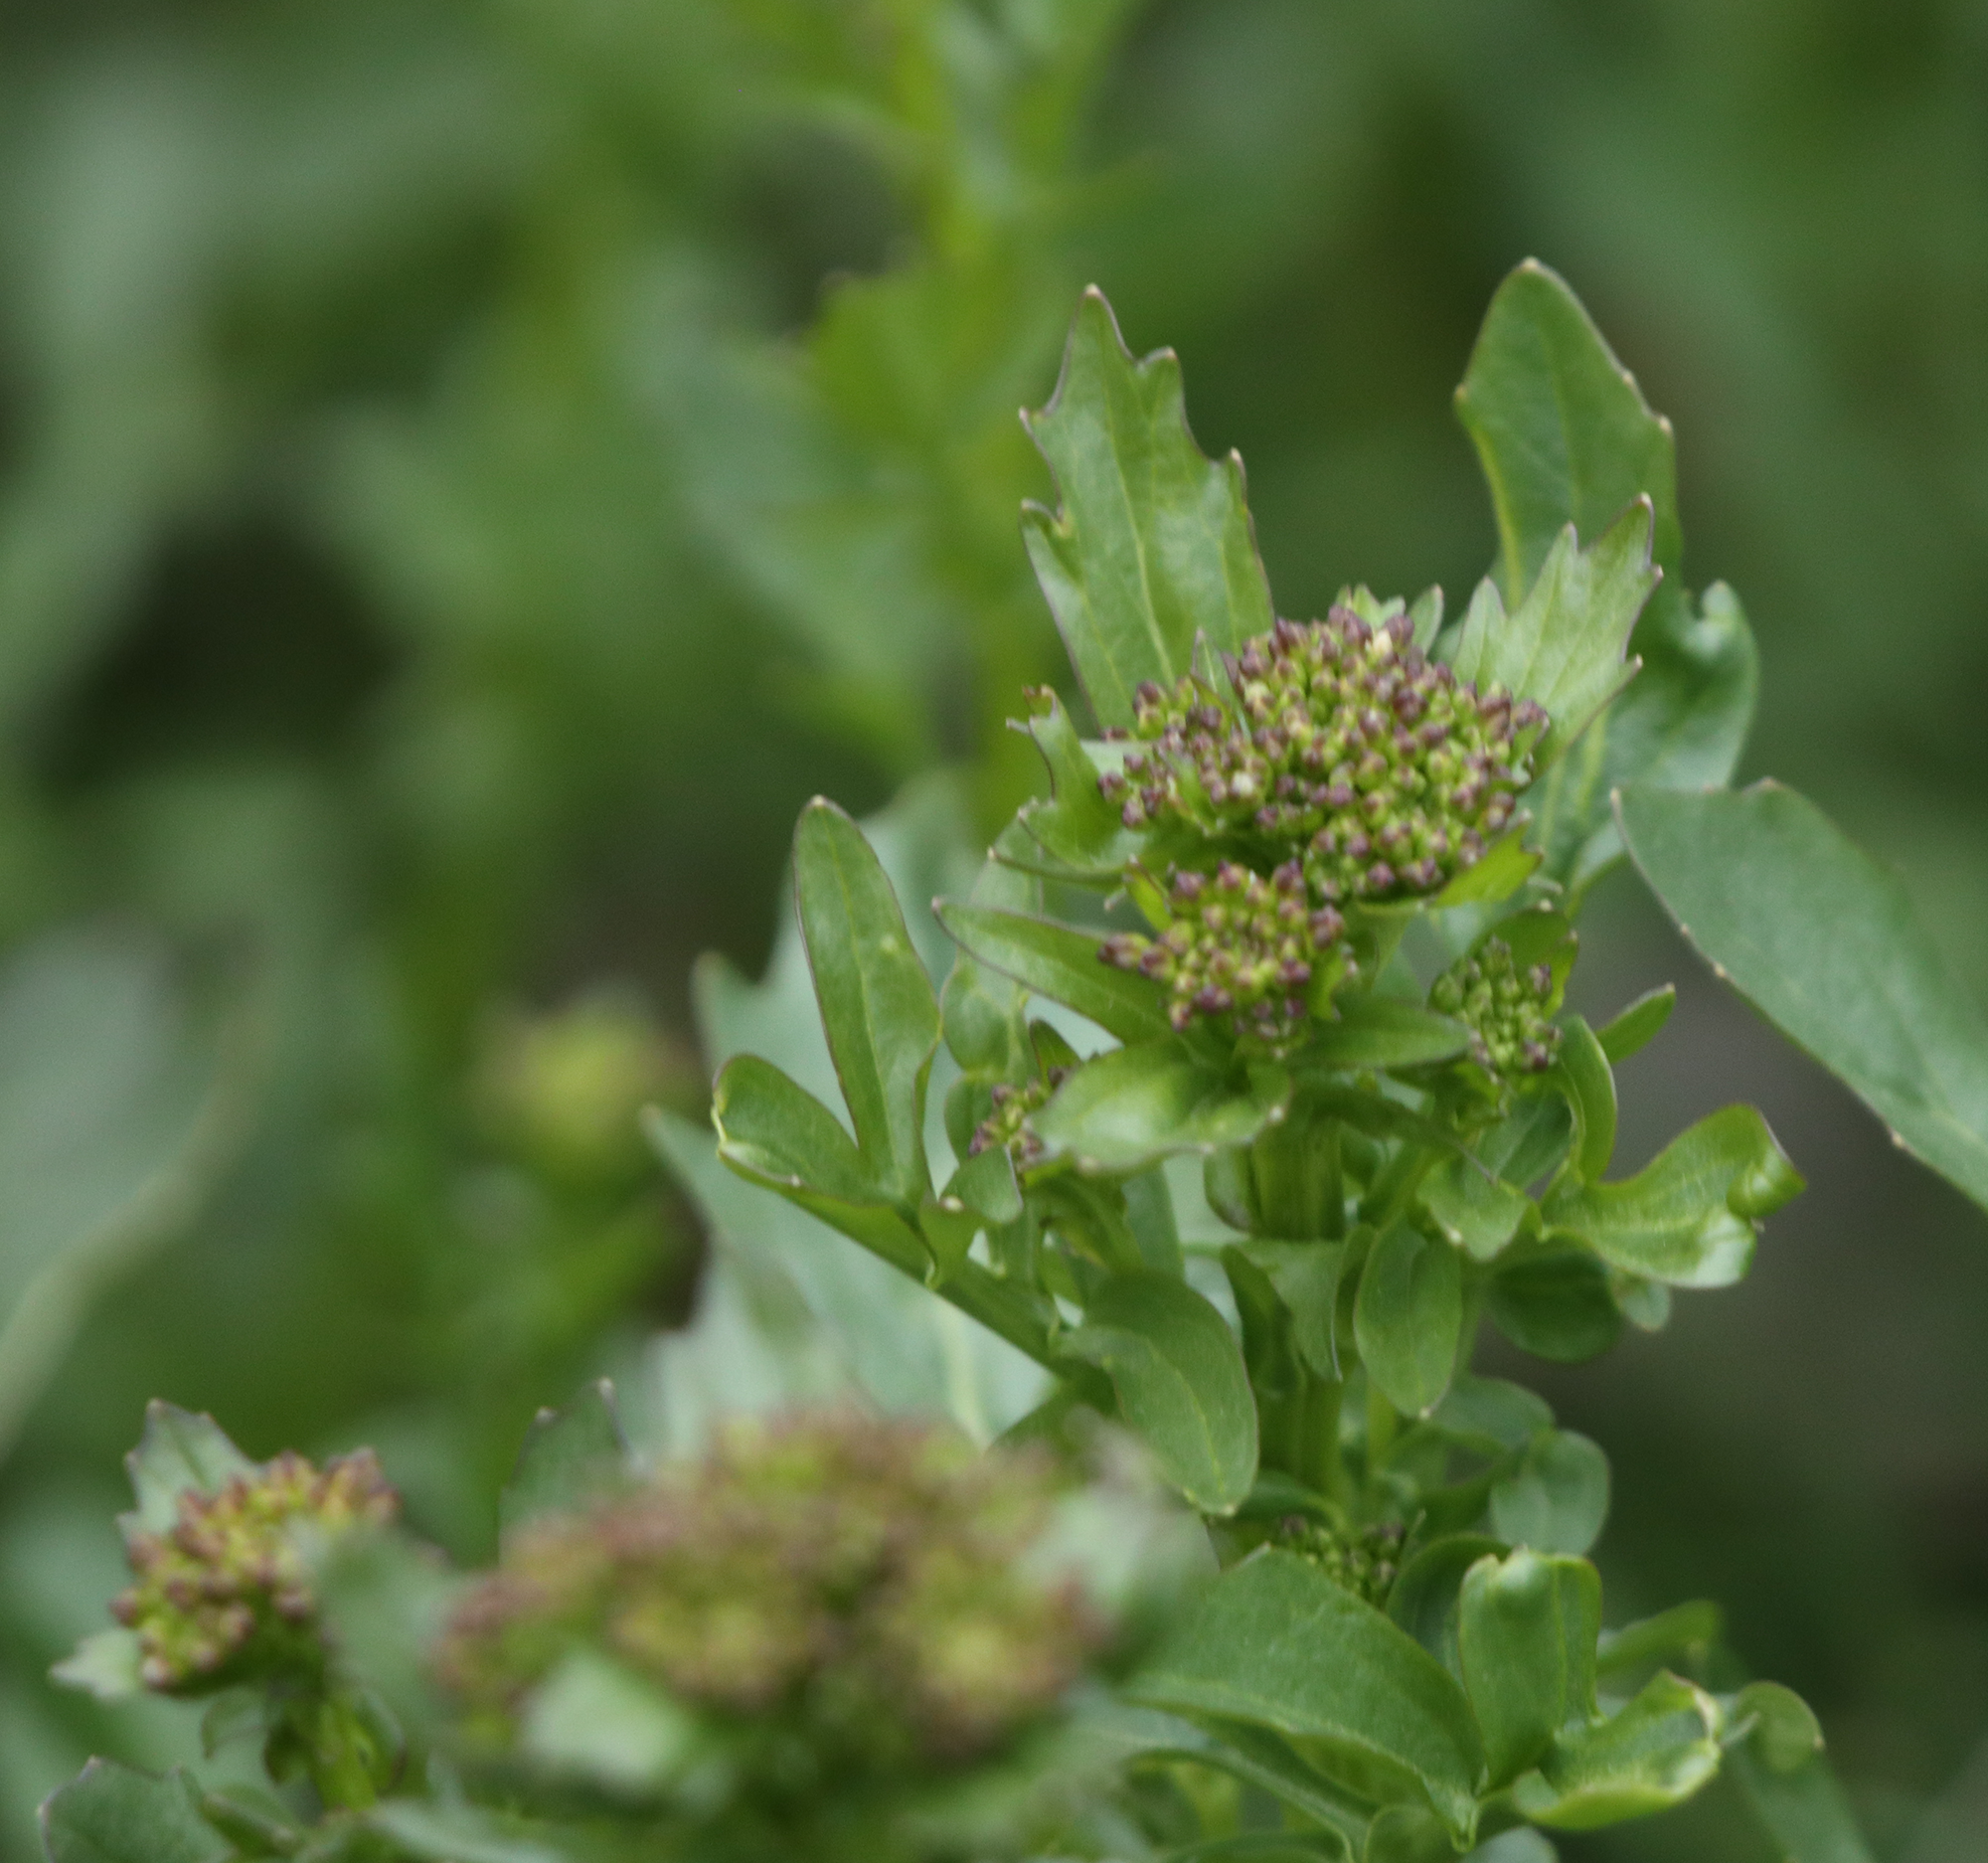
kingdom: Plantae
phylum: Tracheophyta
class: Magnoliopsida
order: Brassicales
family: Brassicaceae
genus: Barbarea
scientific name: Barbarea vulgaris
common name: Cressy-greens
